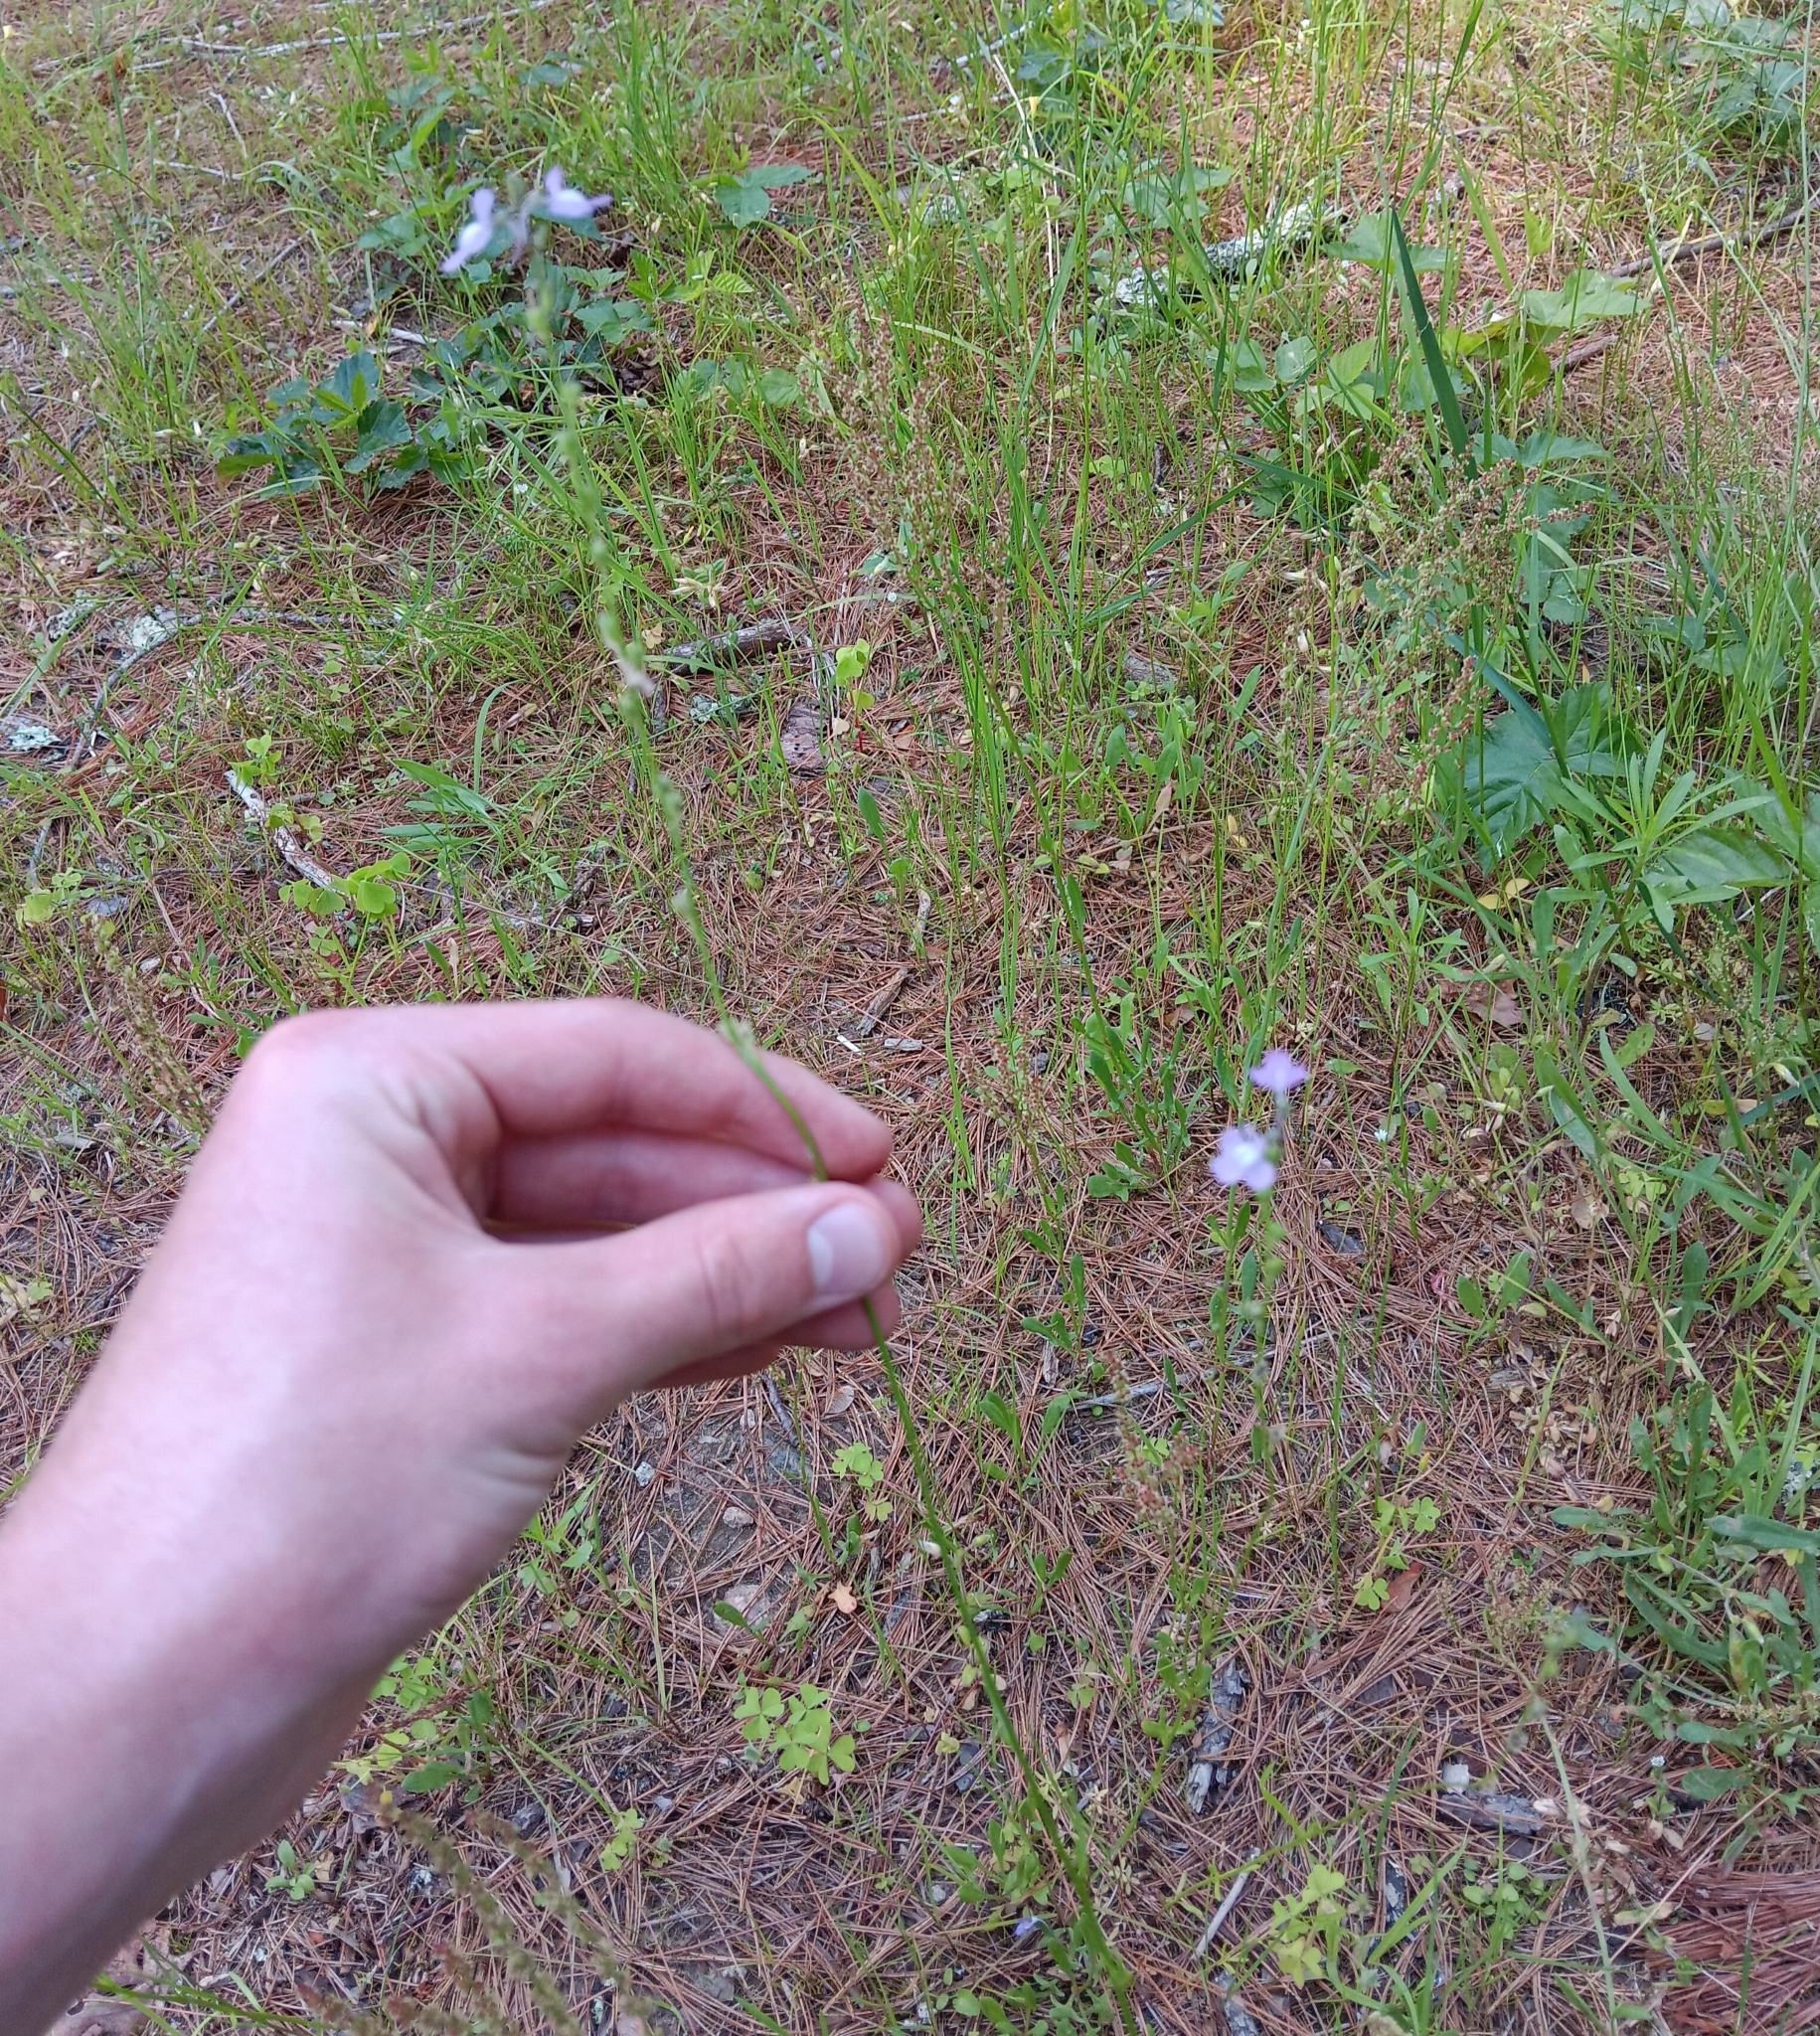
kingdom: Plantae
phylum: Tracheophyta
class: Magnoliopsida
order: Lamiales
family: Plantaginaceae
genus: Nuttallanthus
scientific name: Nuttallanthus canadensis
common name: Blue toadflax
